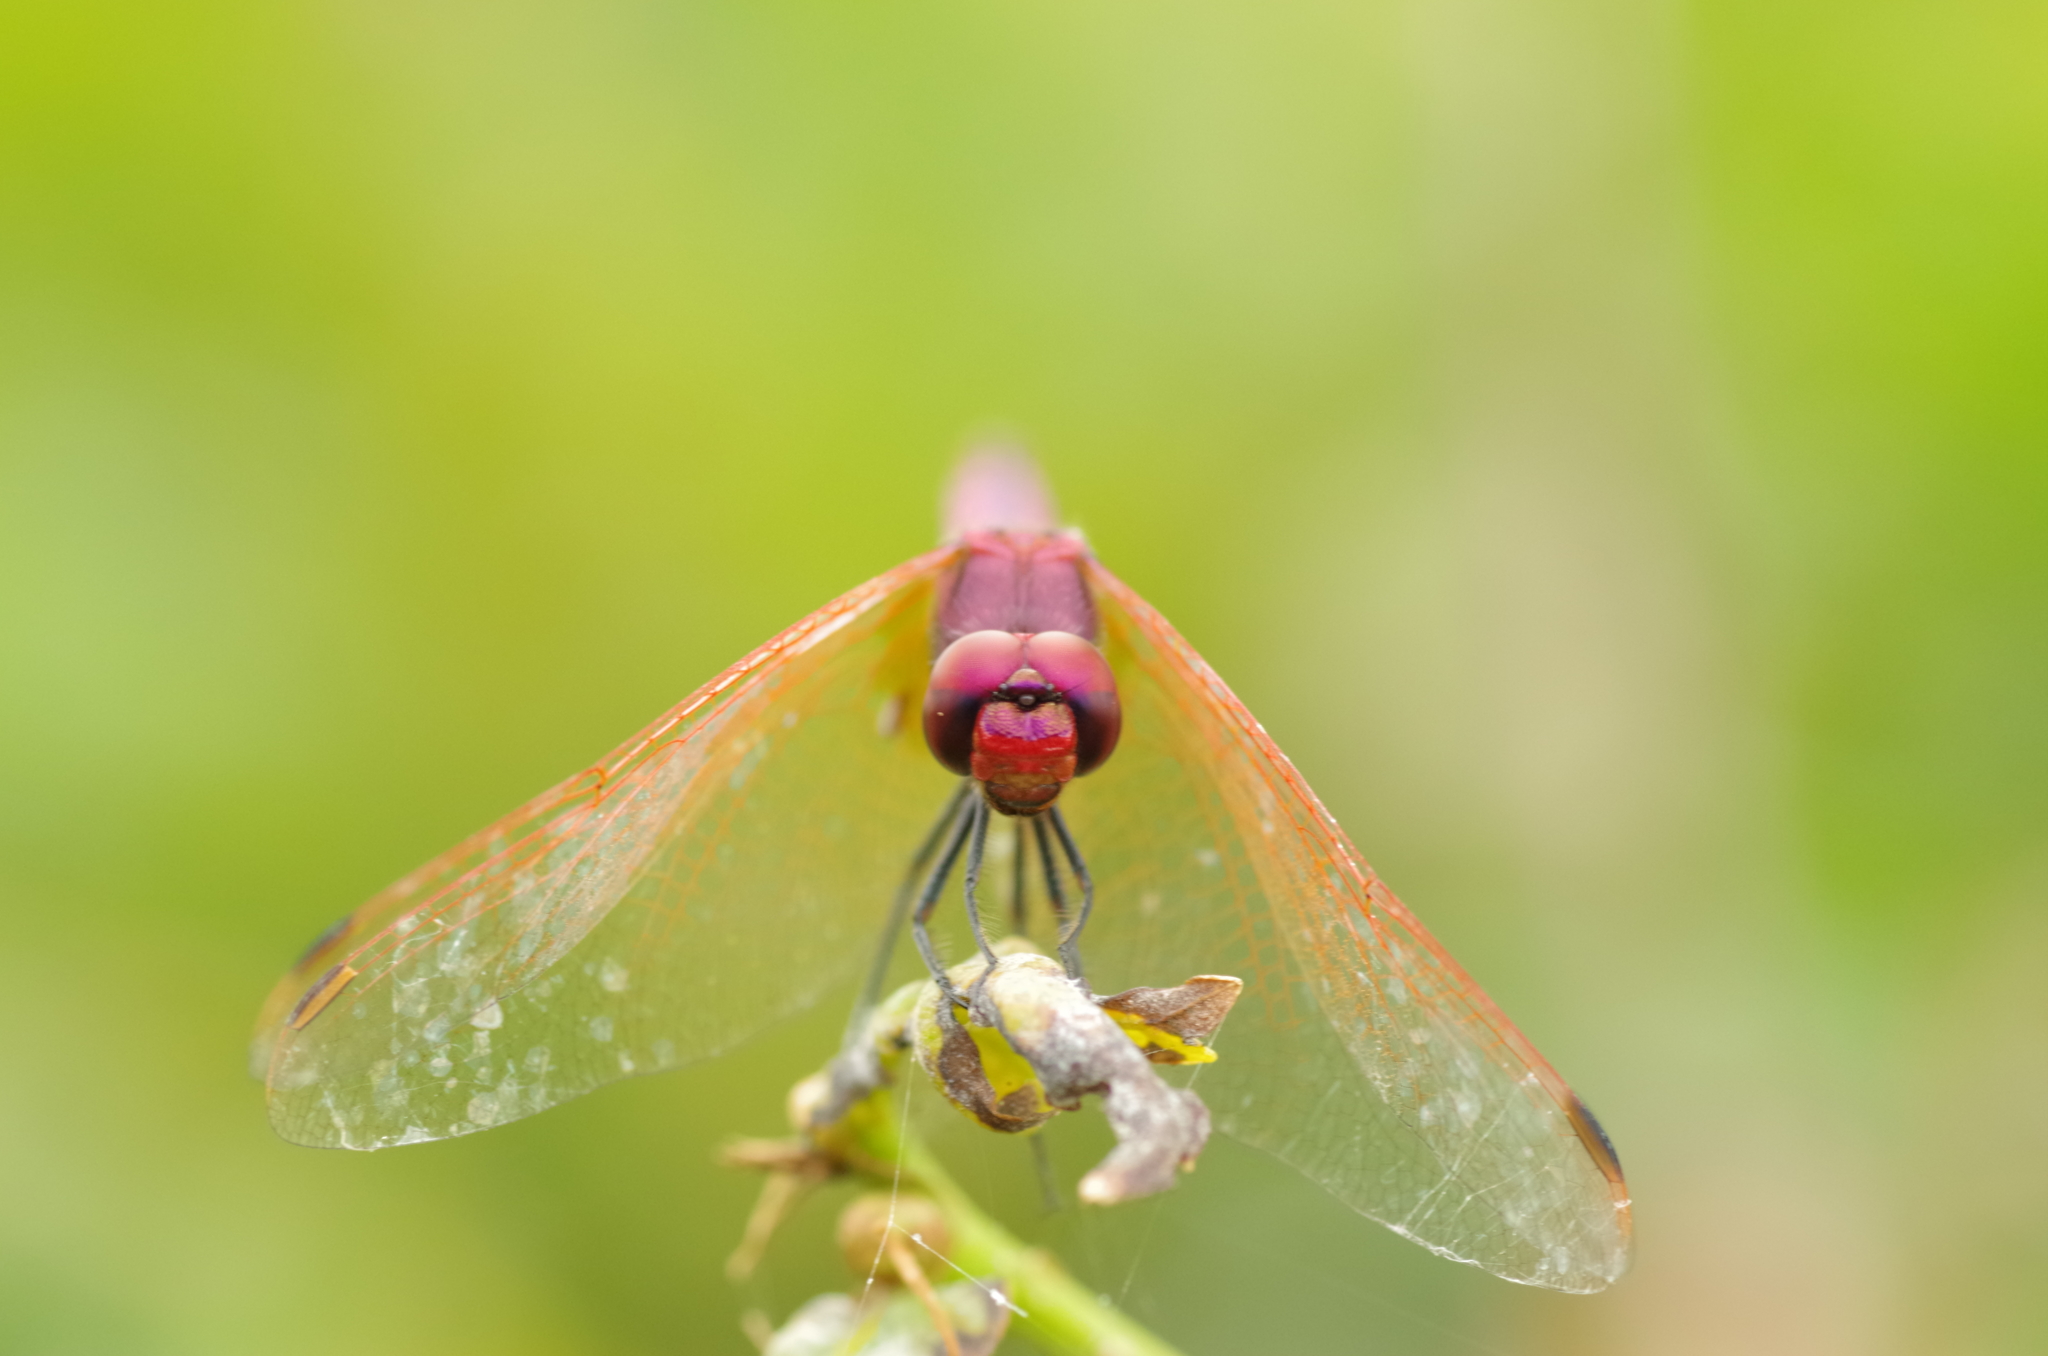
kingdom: Animalia
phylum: Arthropoda
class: Insecta
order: Odonata
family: Libellulidae
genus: Trithemis
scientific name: Trithemis annulata
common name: Violet dropwing
